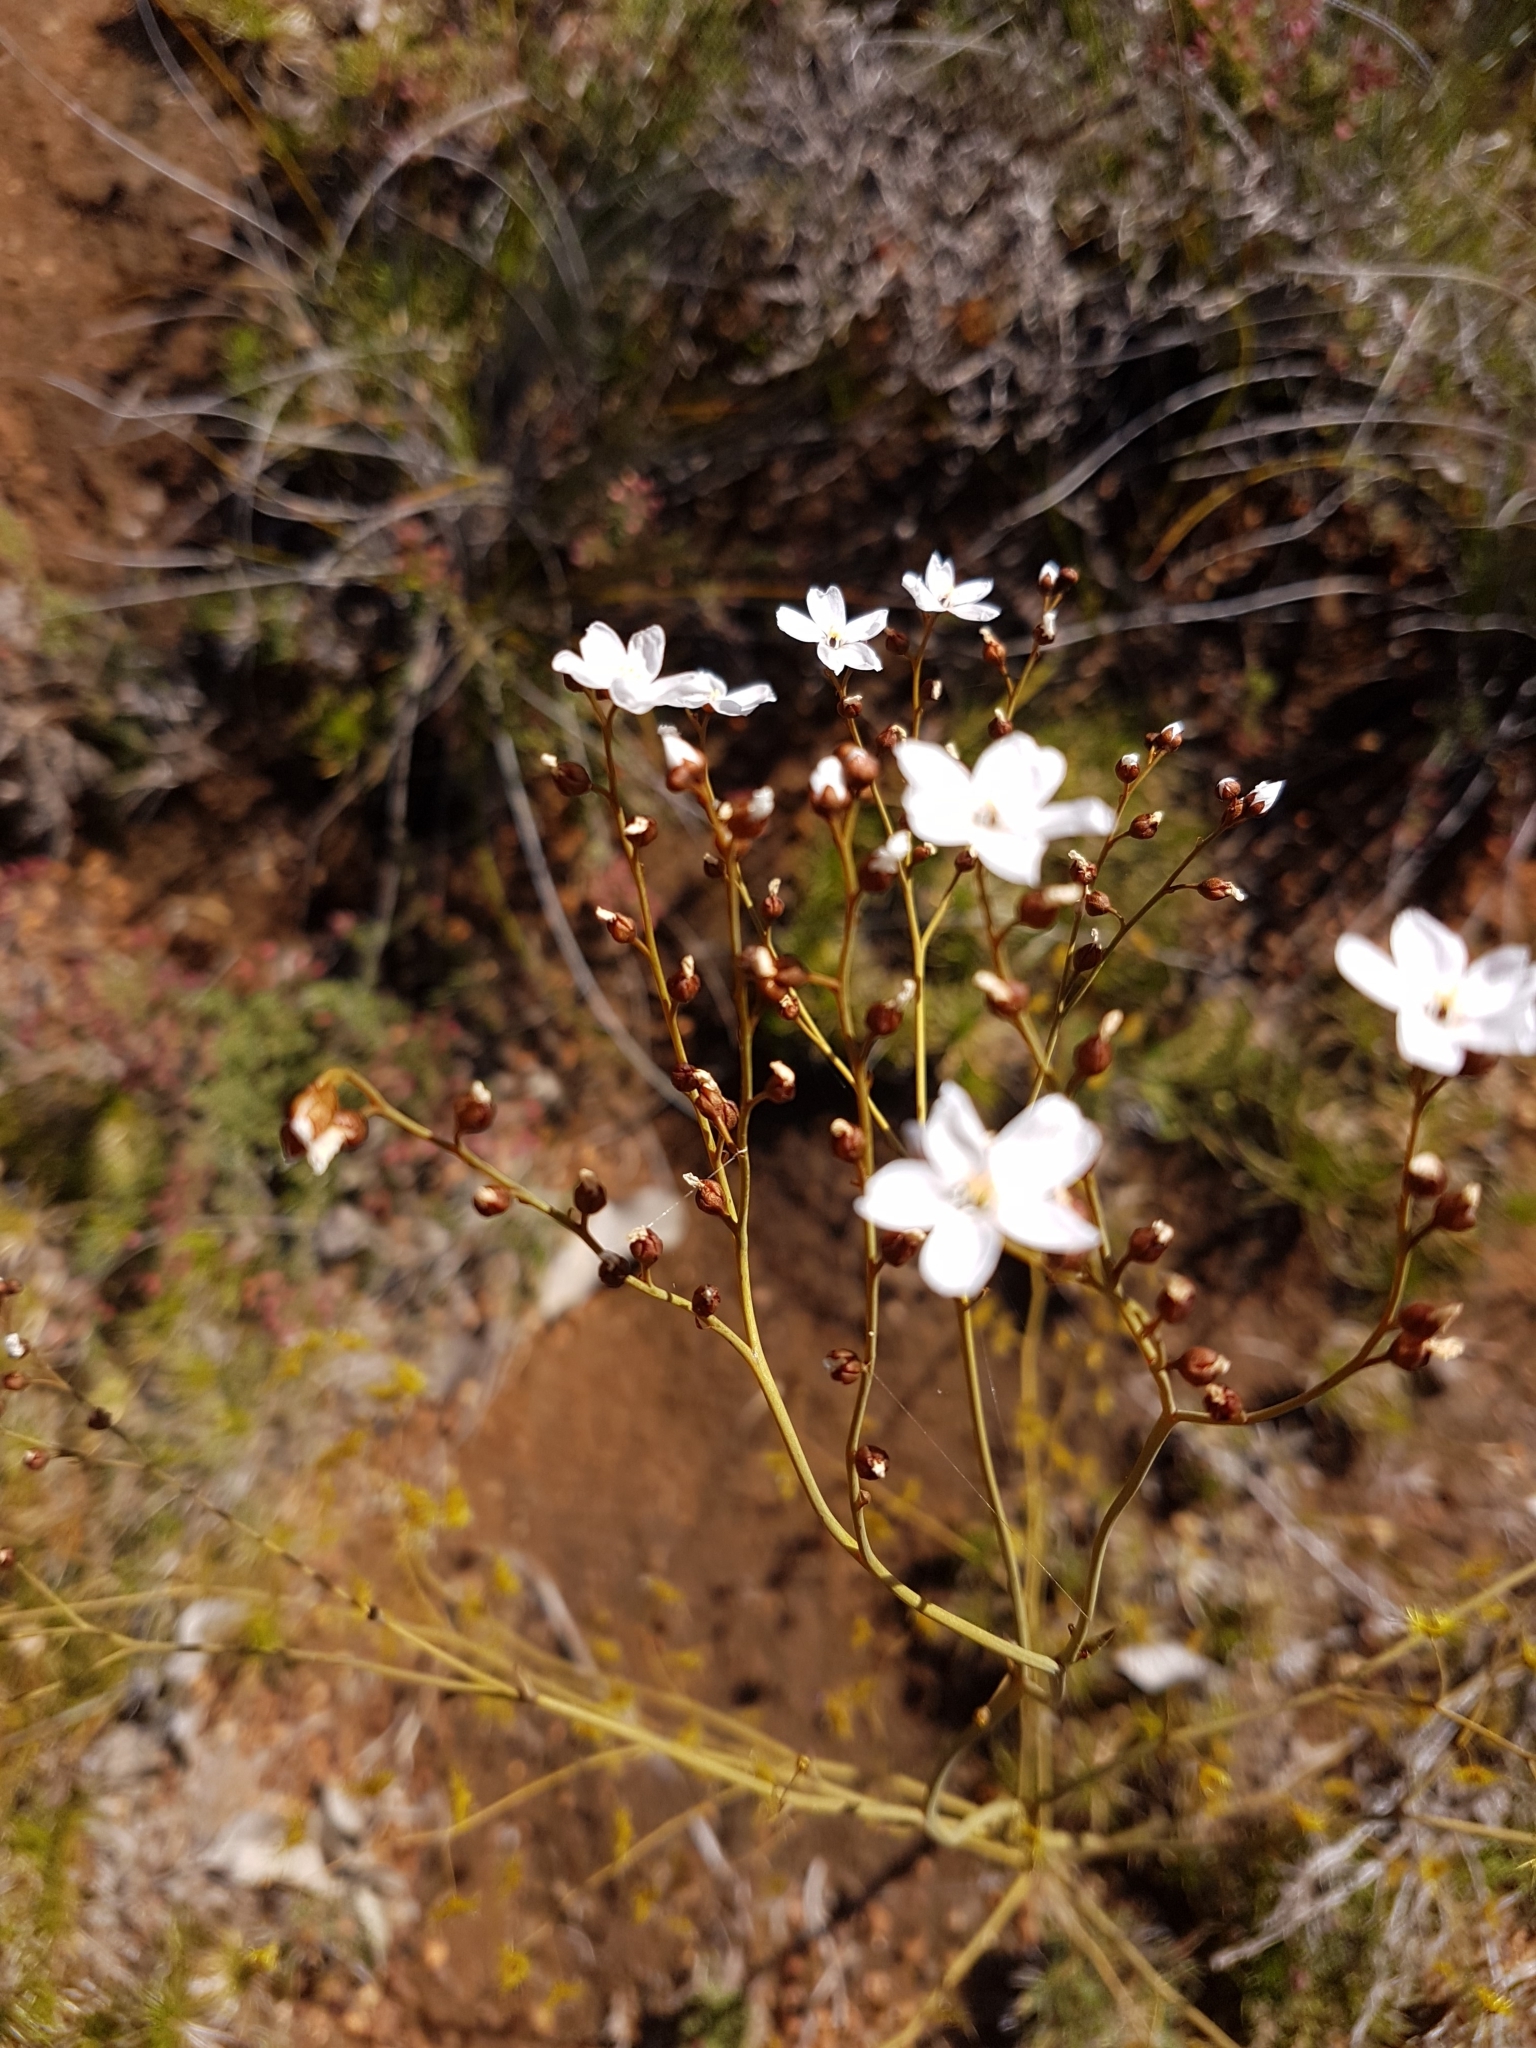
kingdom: Plantae
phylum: Tracheophyta
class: Magnoliopsida
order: Caryophyllales
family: Droseraceae
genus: Drosera
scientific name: Drosera gigantea
